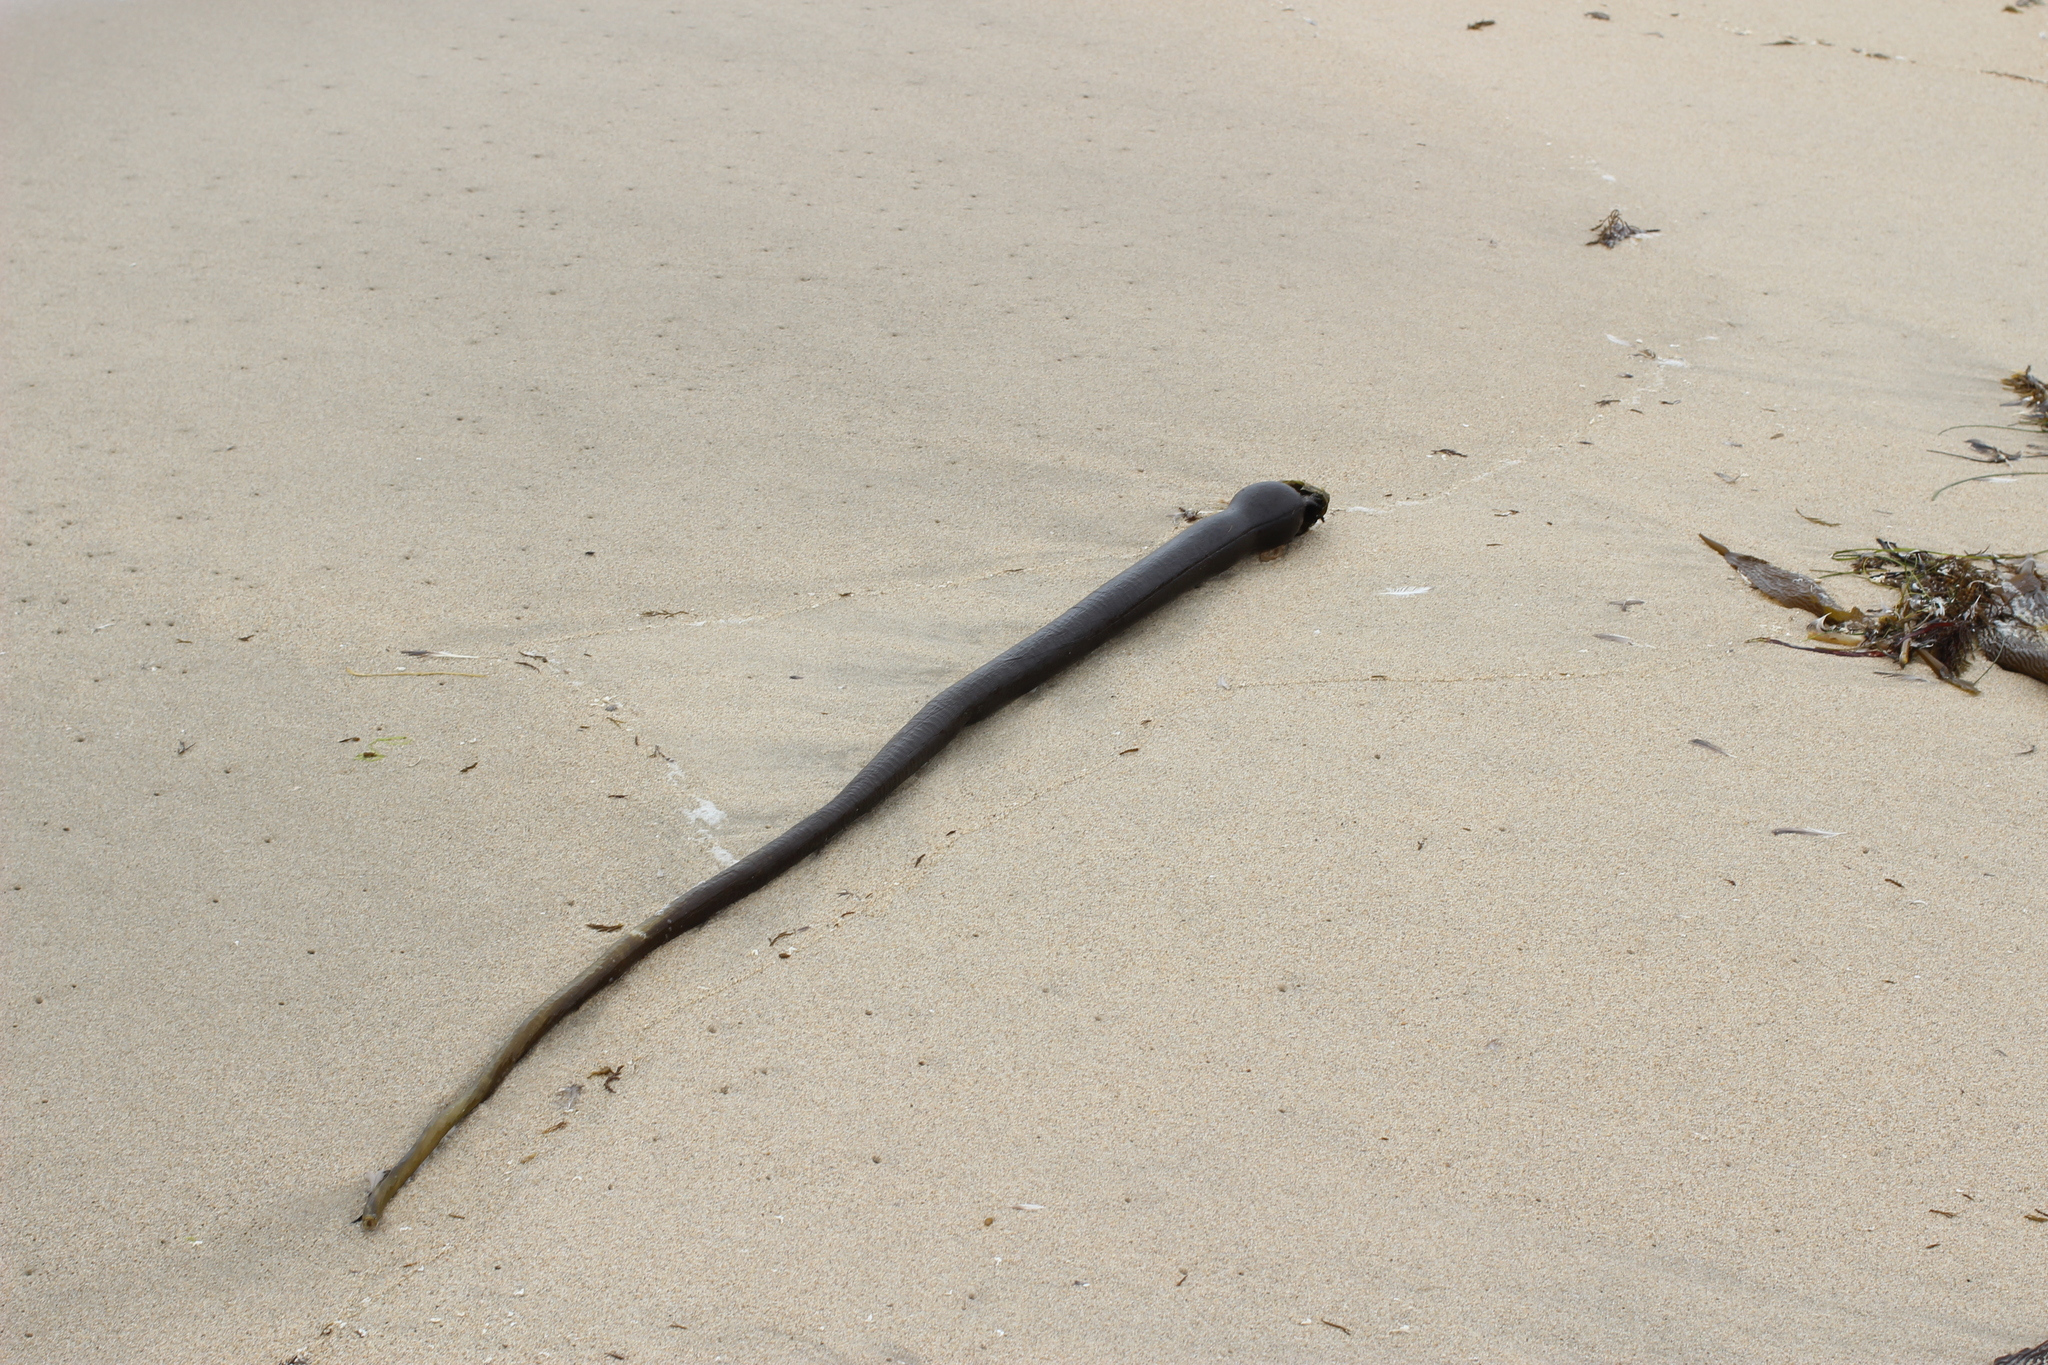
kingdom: Chromista
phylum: Ochrophyta
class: Phaeophyceae
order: Laminariales
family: Laminariaceae
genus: Nereocystis
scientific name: Nereocystis luetkeana
